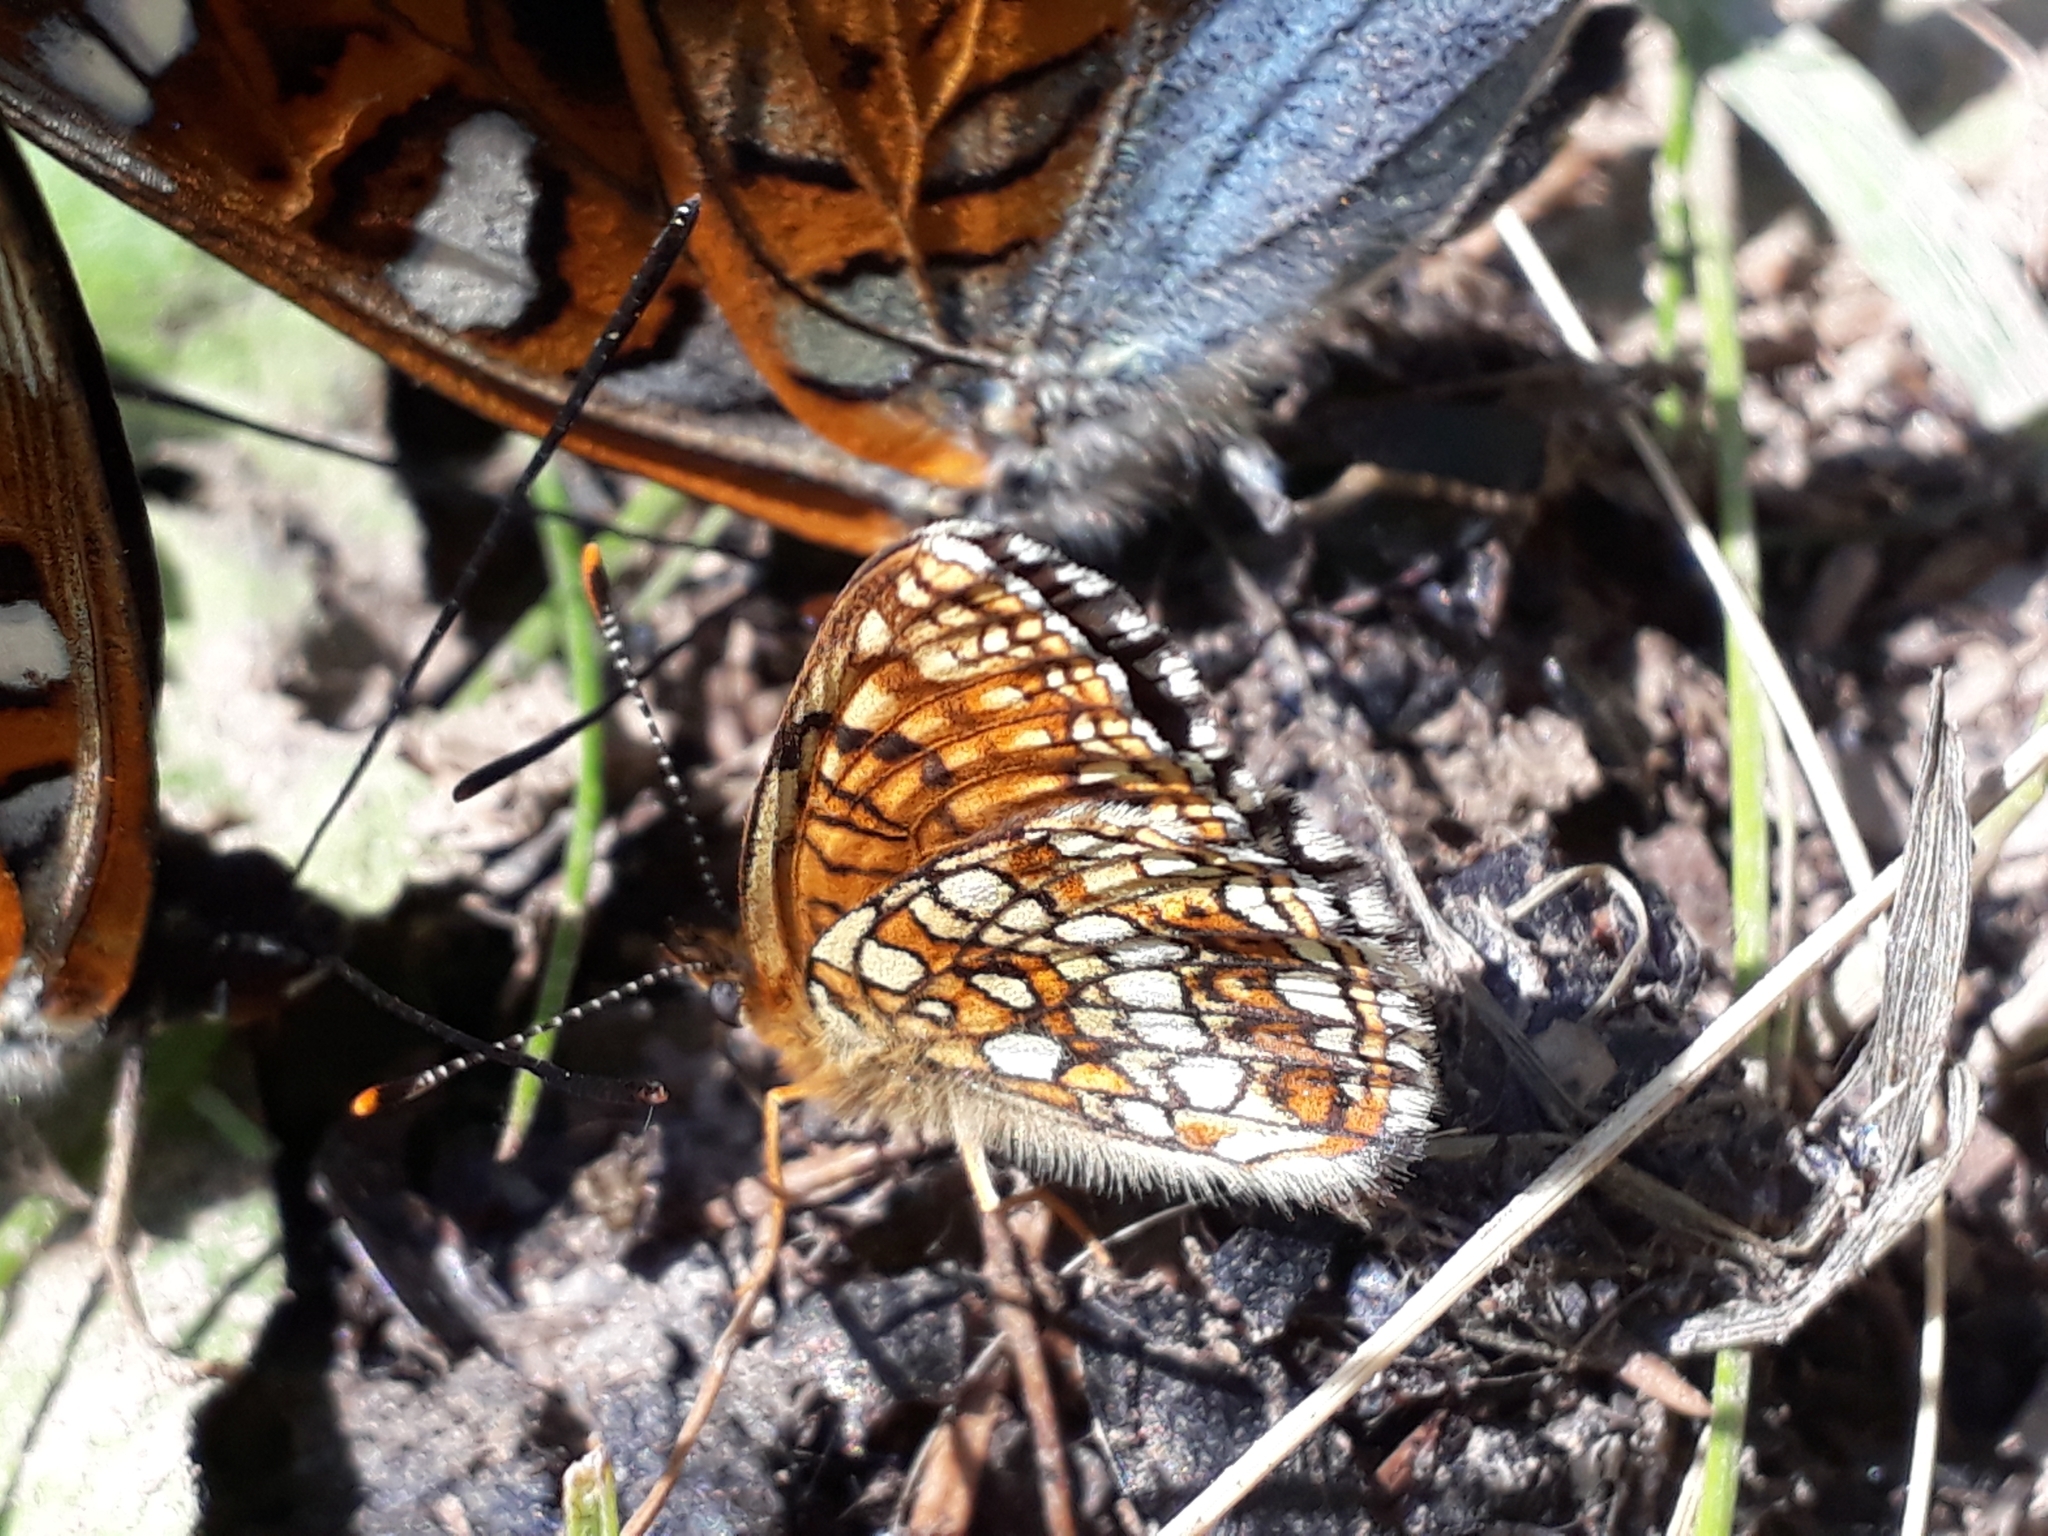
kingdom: Animalia
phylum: Arthropoda
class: Insecta
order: Lepidoptera
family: Nymphalidae
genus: Melitaea
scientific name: Melitaea diamina
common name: False heath fritillary
